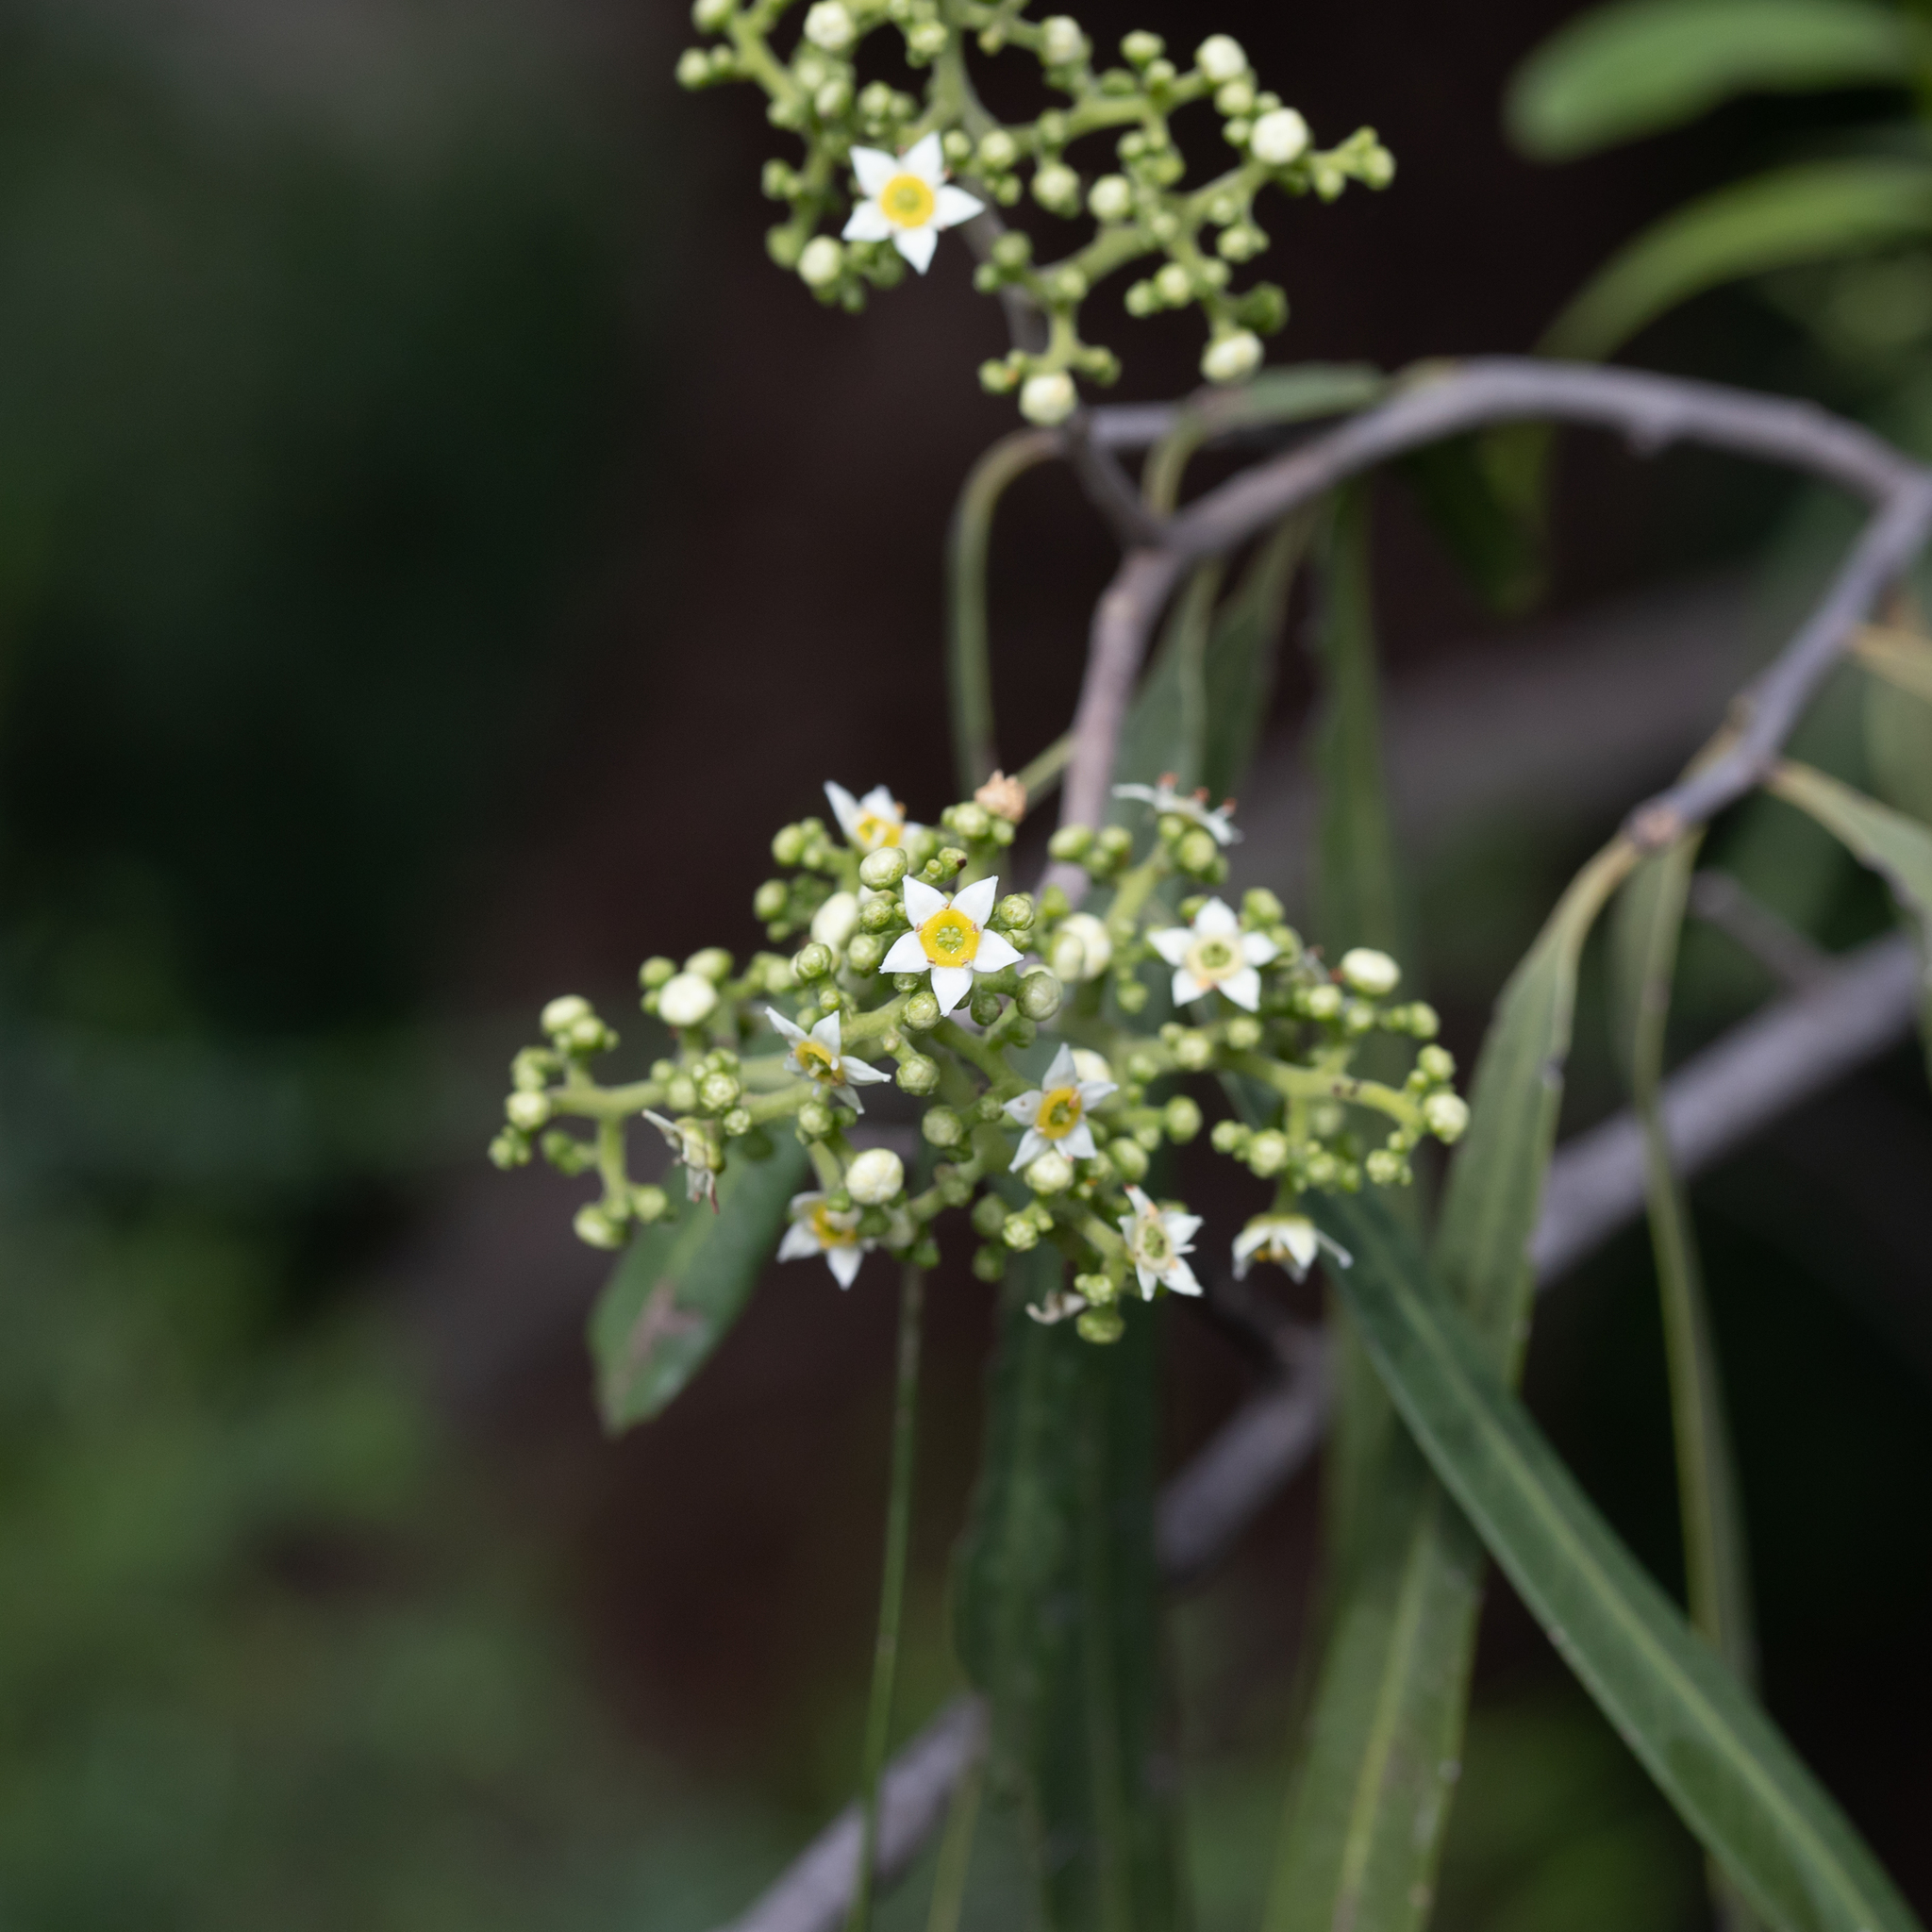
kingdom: Plantae
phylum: Tracheophyta
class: Magnoliopsida
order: Sapindales
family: Rutaceae
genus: Geijera
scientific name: Geijera parviflora
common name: Wilga
